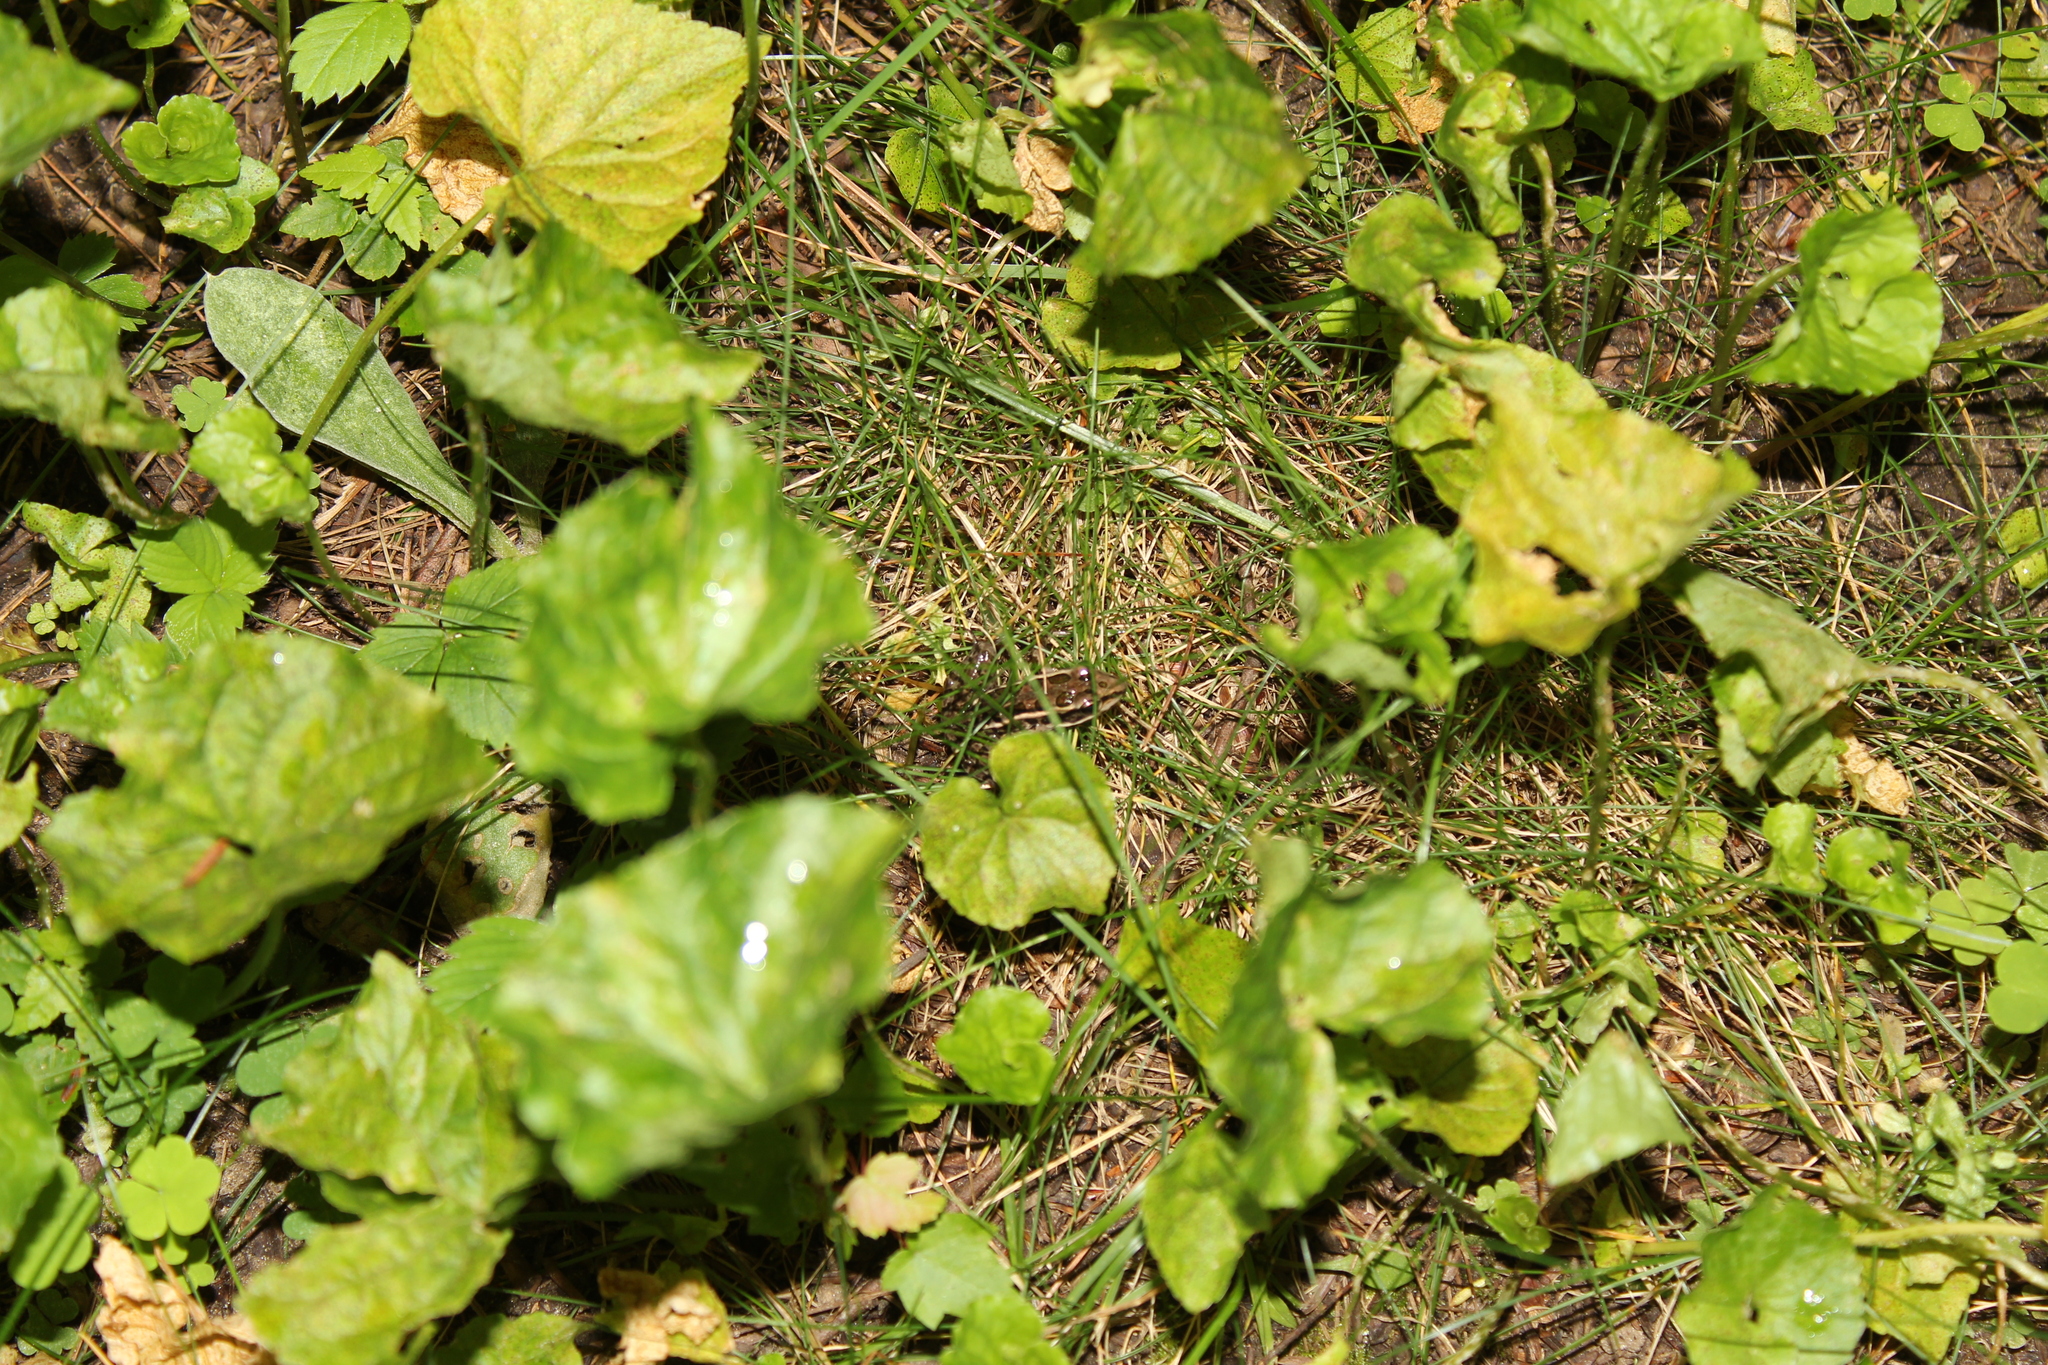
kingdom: Animalia
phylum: Chordata
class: Amphibia
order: Anura
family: Ranidae
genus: Lithobates
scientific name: Lithobates palustris
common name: Pickerel frog
